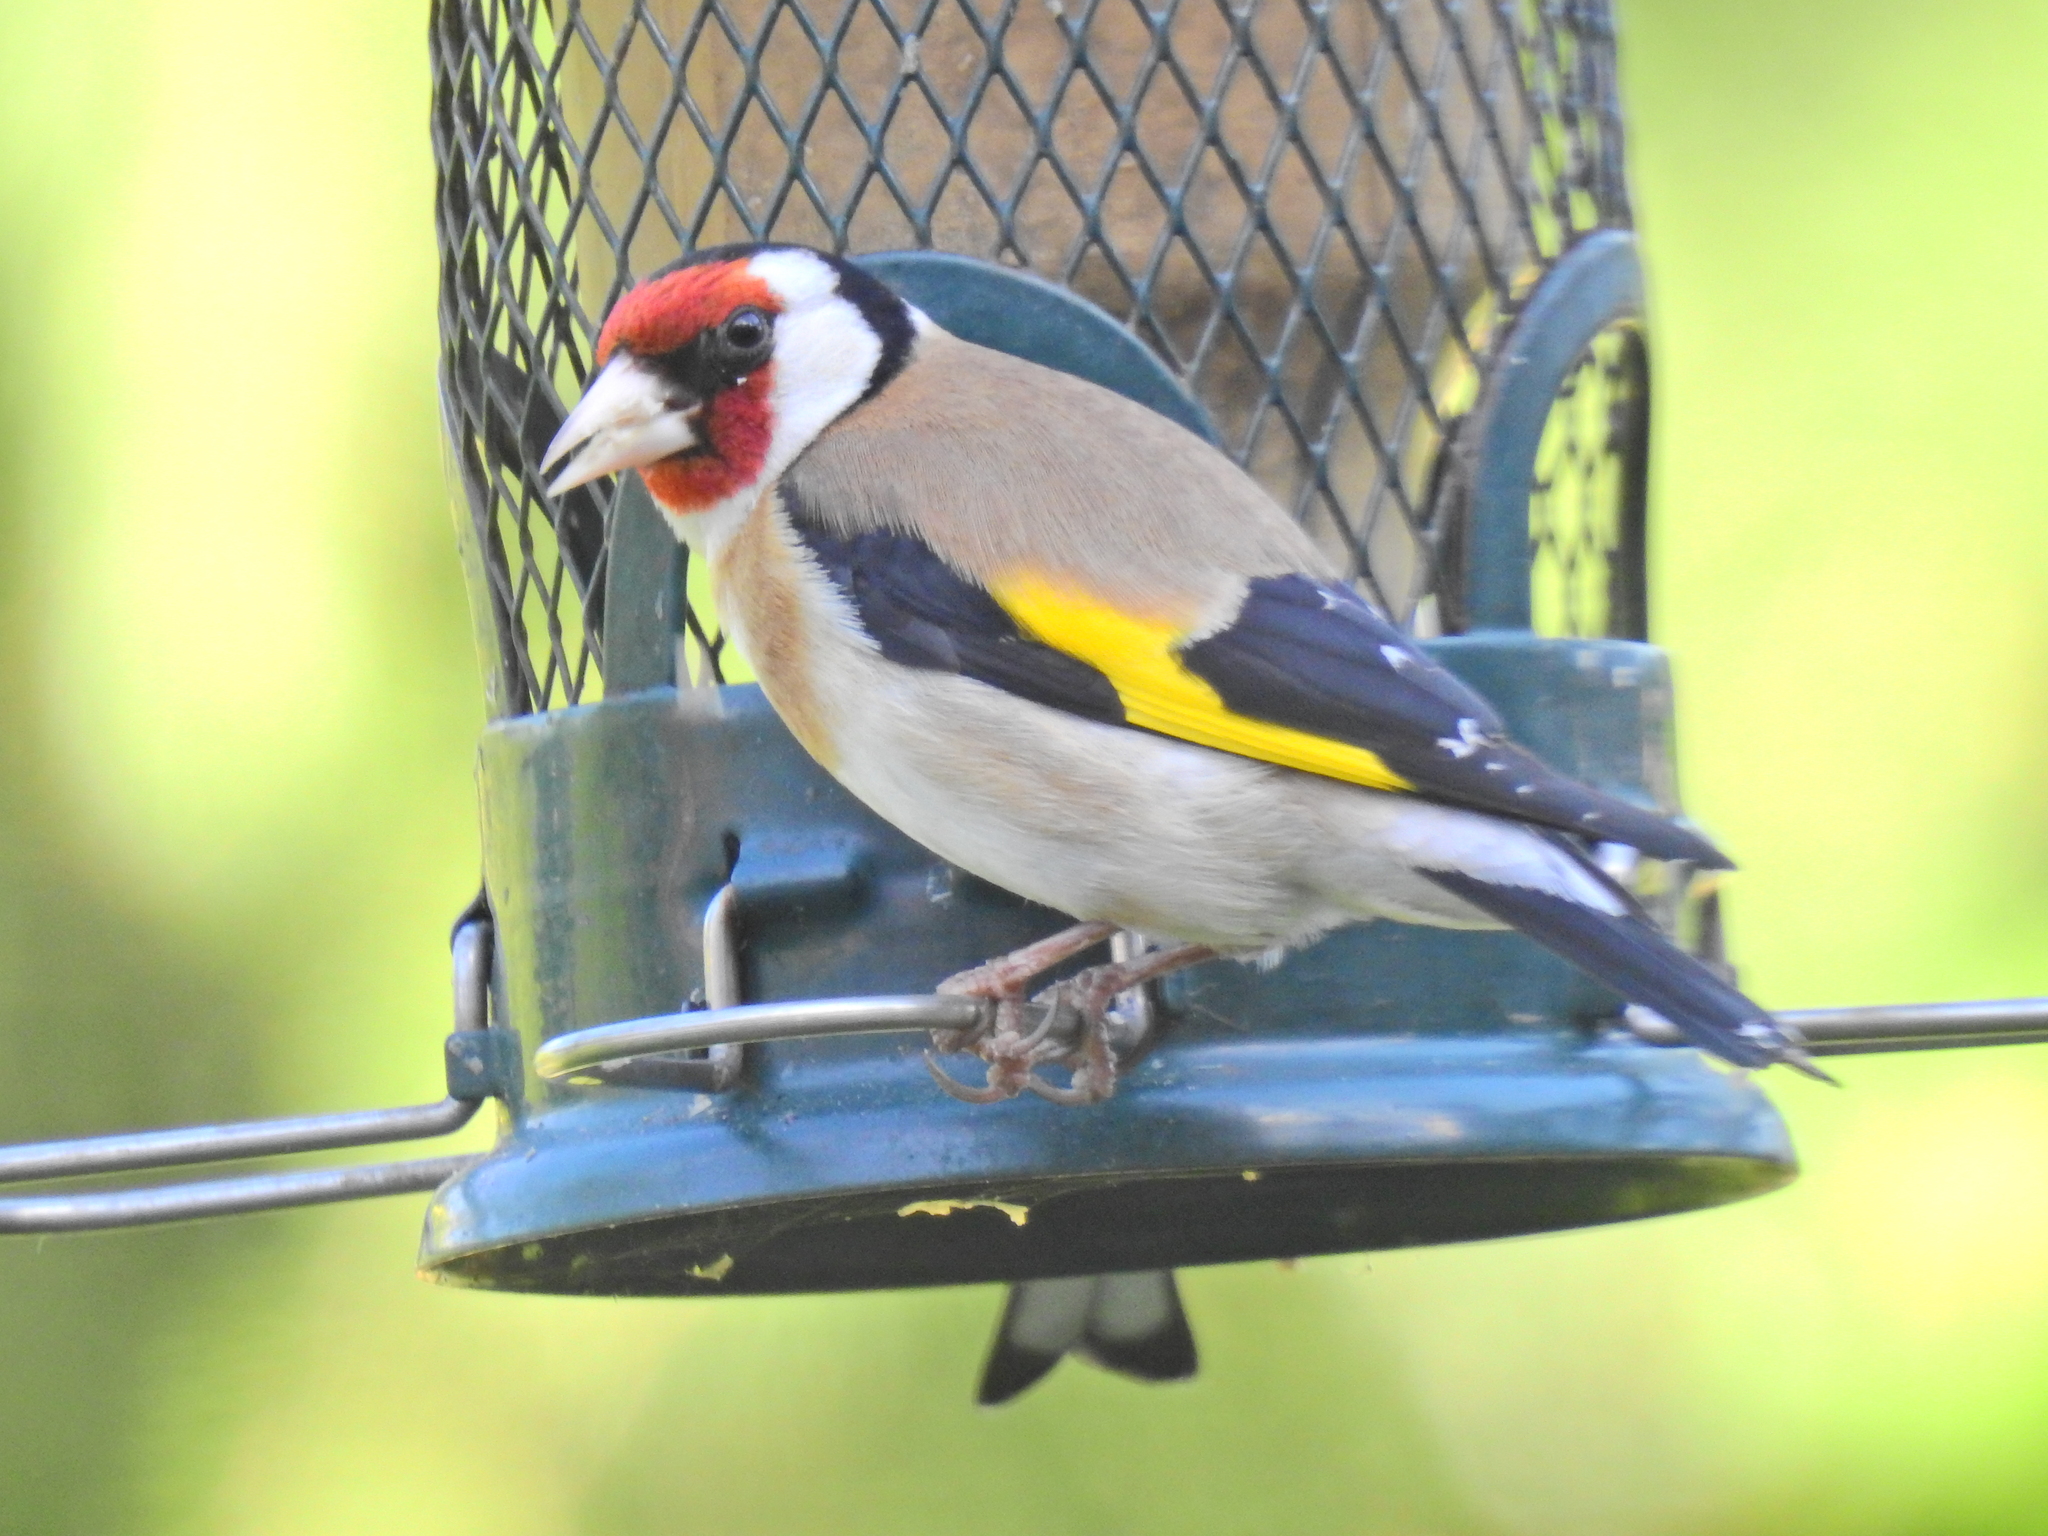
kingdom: Animalia
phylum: Chordata
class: Aves
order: Passeriformes
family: Fringillidae
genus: Carduelis
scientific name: Carduelis carduelis
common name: European goldfinch
